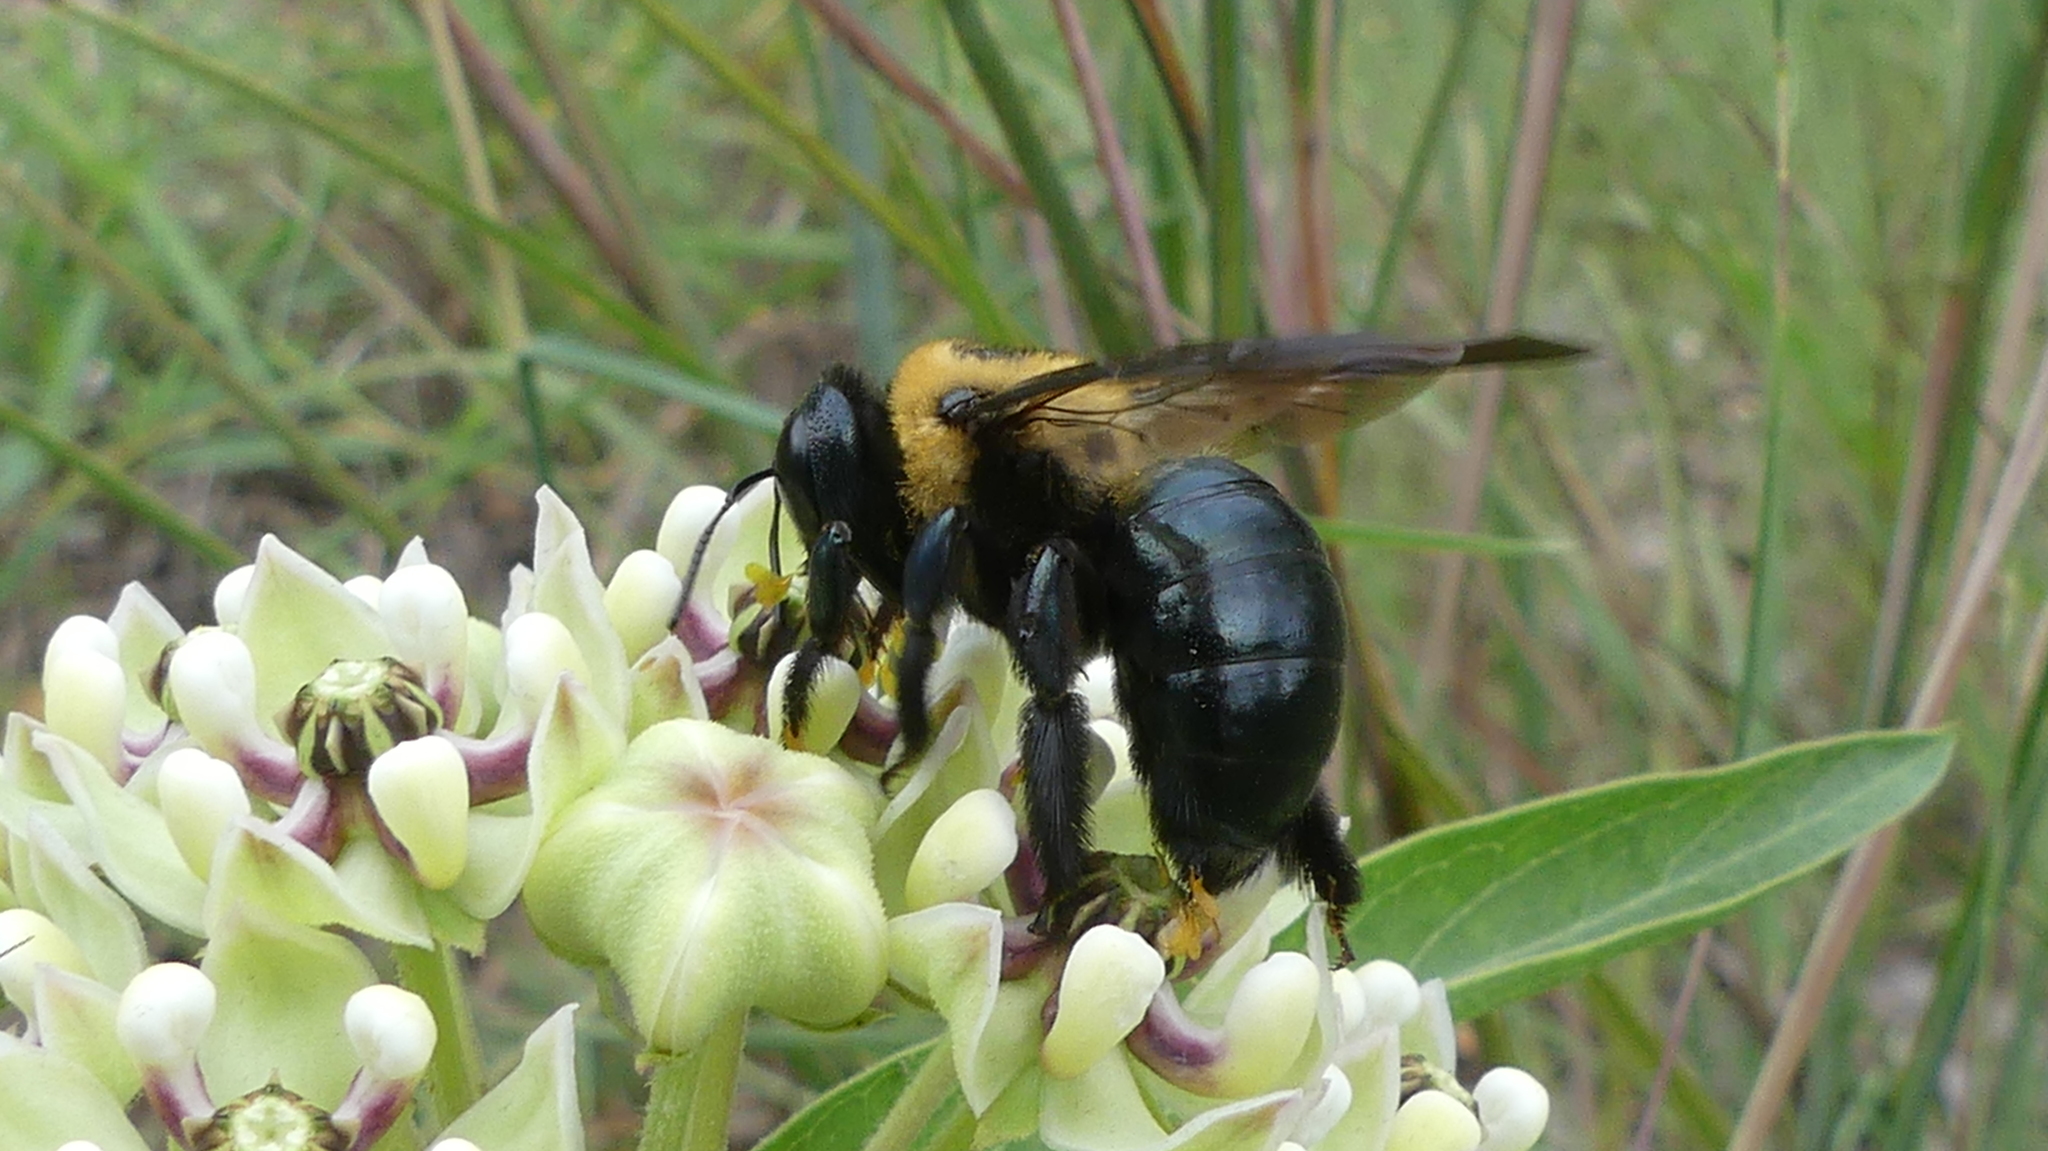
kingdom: Animalia
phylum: Arthropoda
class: Insecta
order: Hymenoptera
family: Apidae
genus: Xylocopa
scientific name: Xylocopa virginica
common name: Carpenter bee
